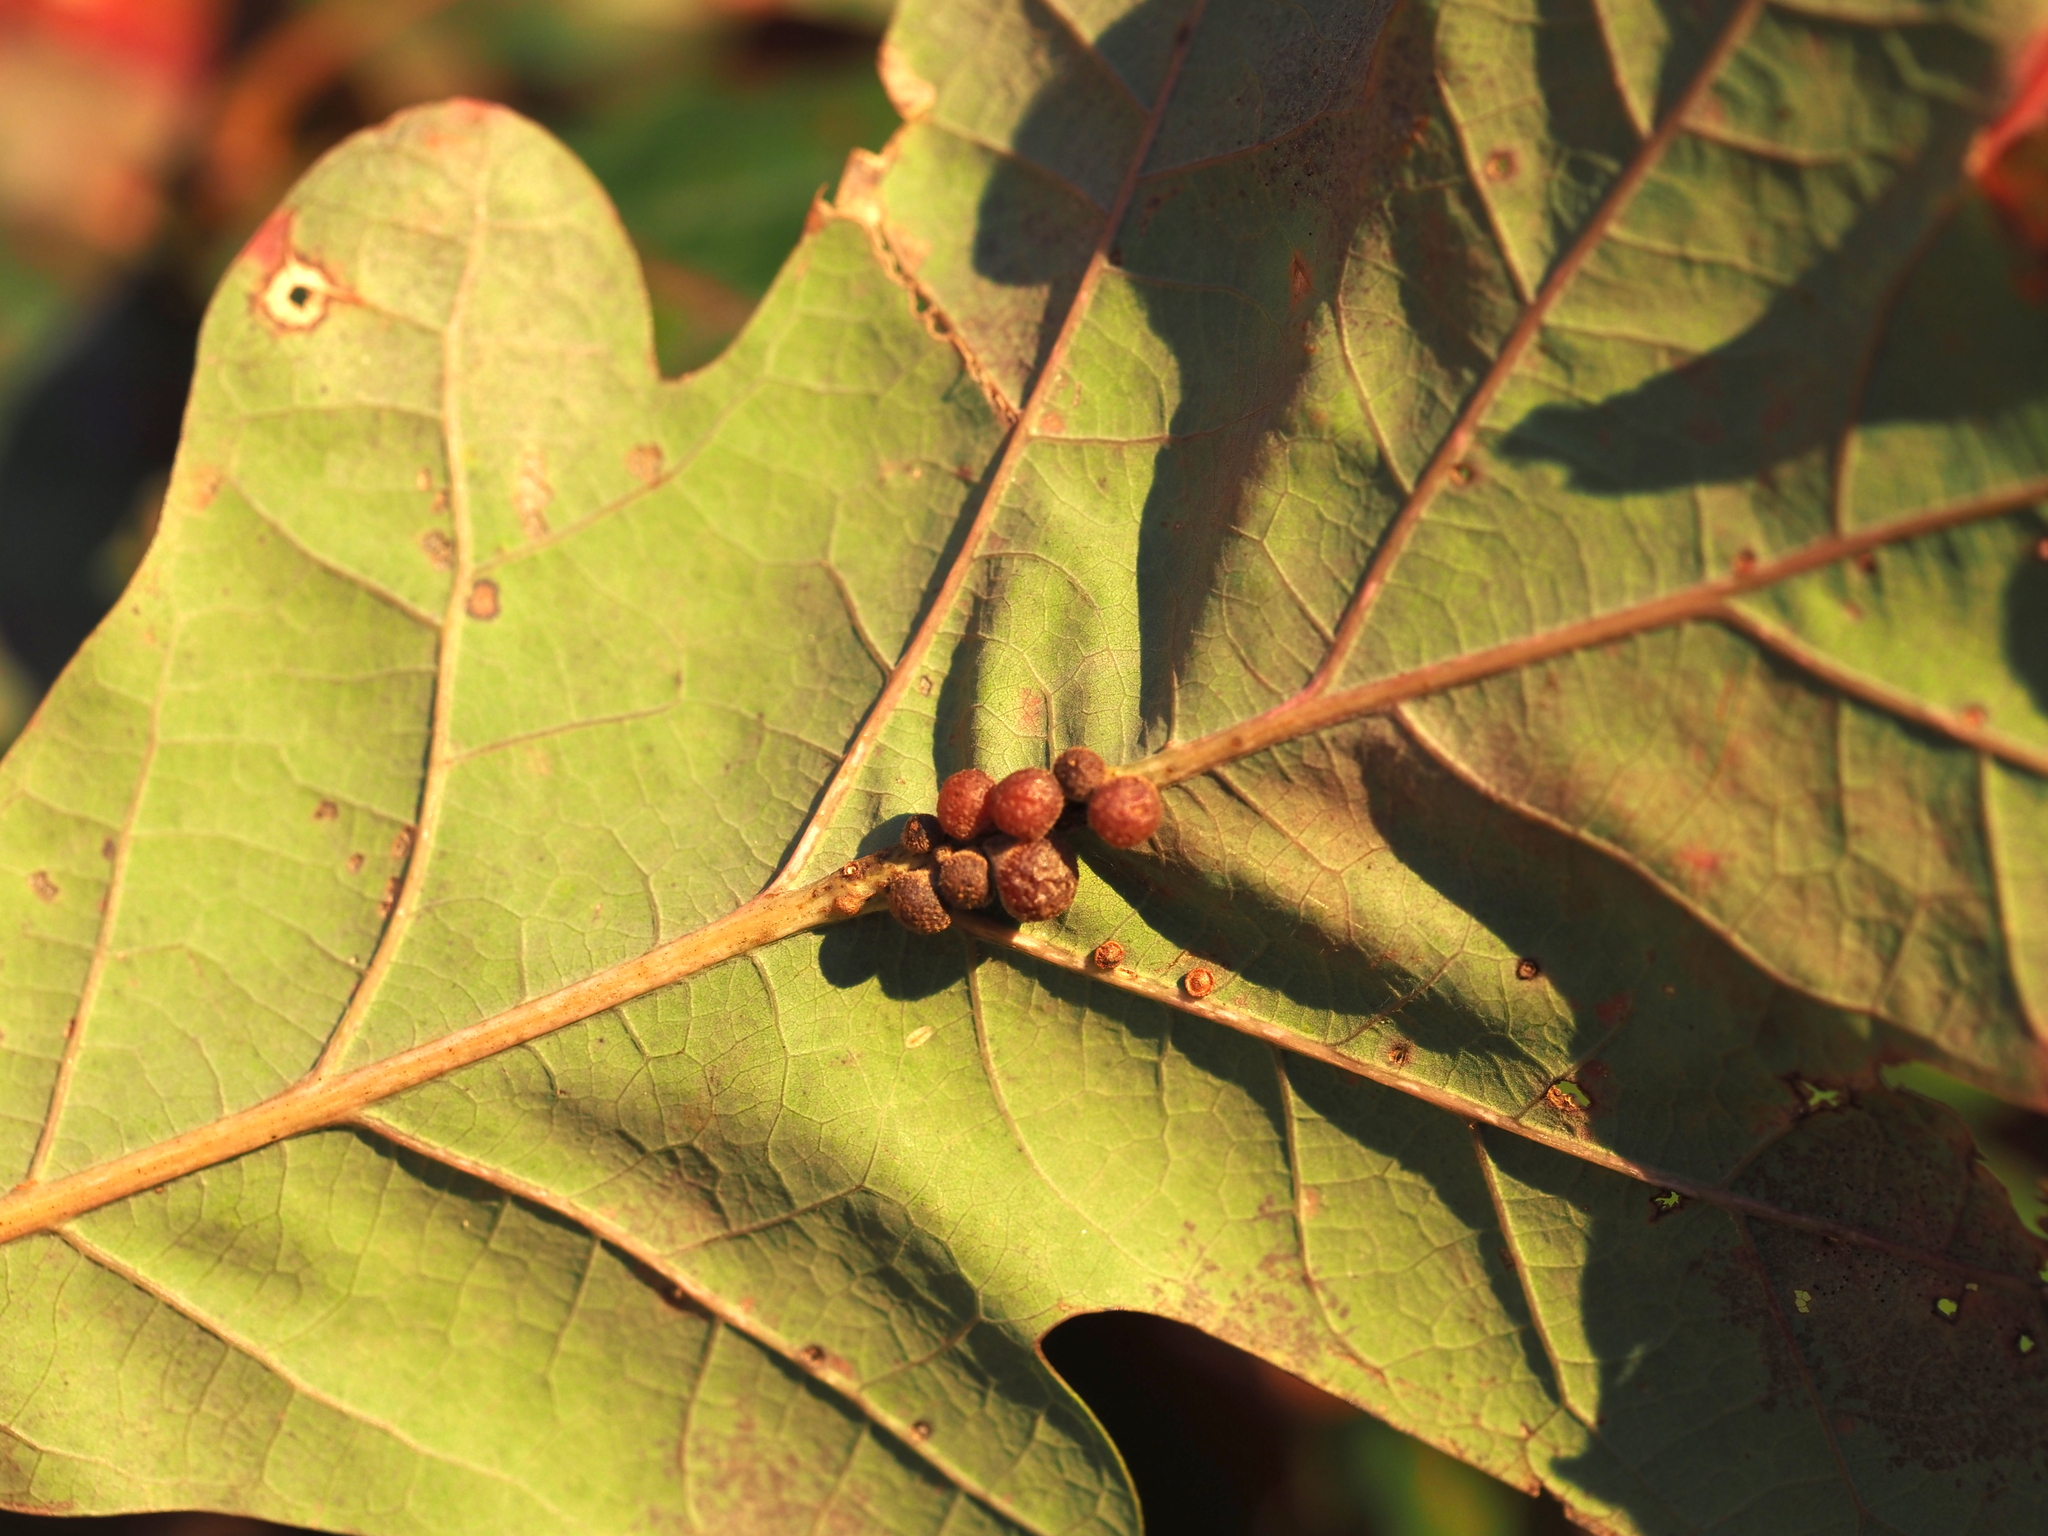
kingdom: Animalia
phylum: Arthropoda
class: Insecta
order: Hymenoptera
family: Cynipidae
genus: Andricus
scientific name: Andricus
